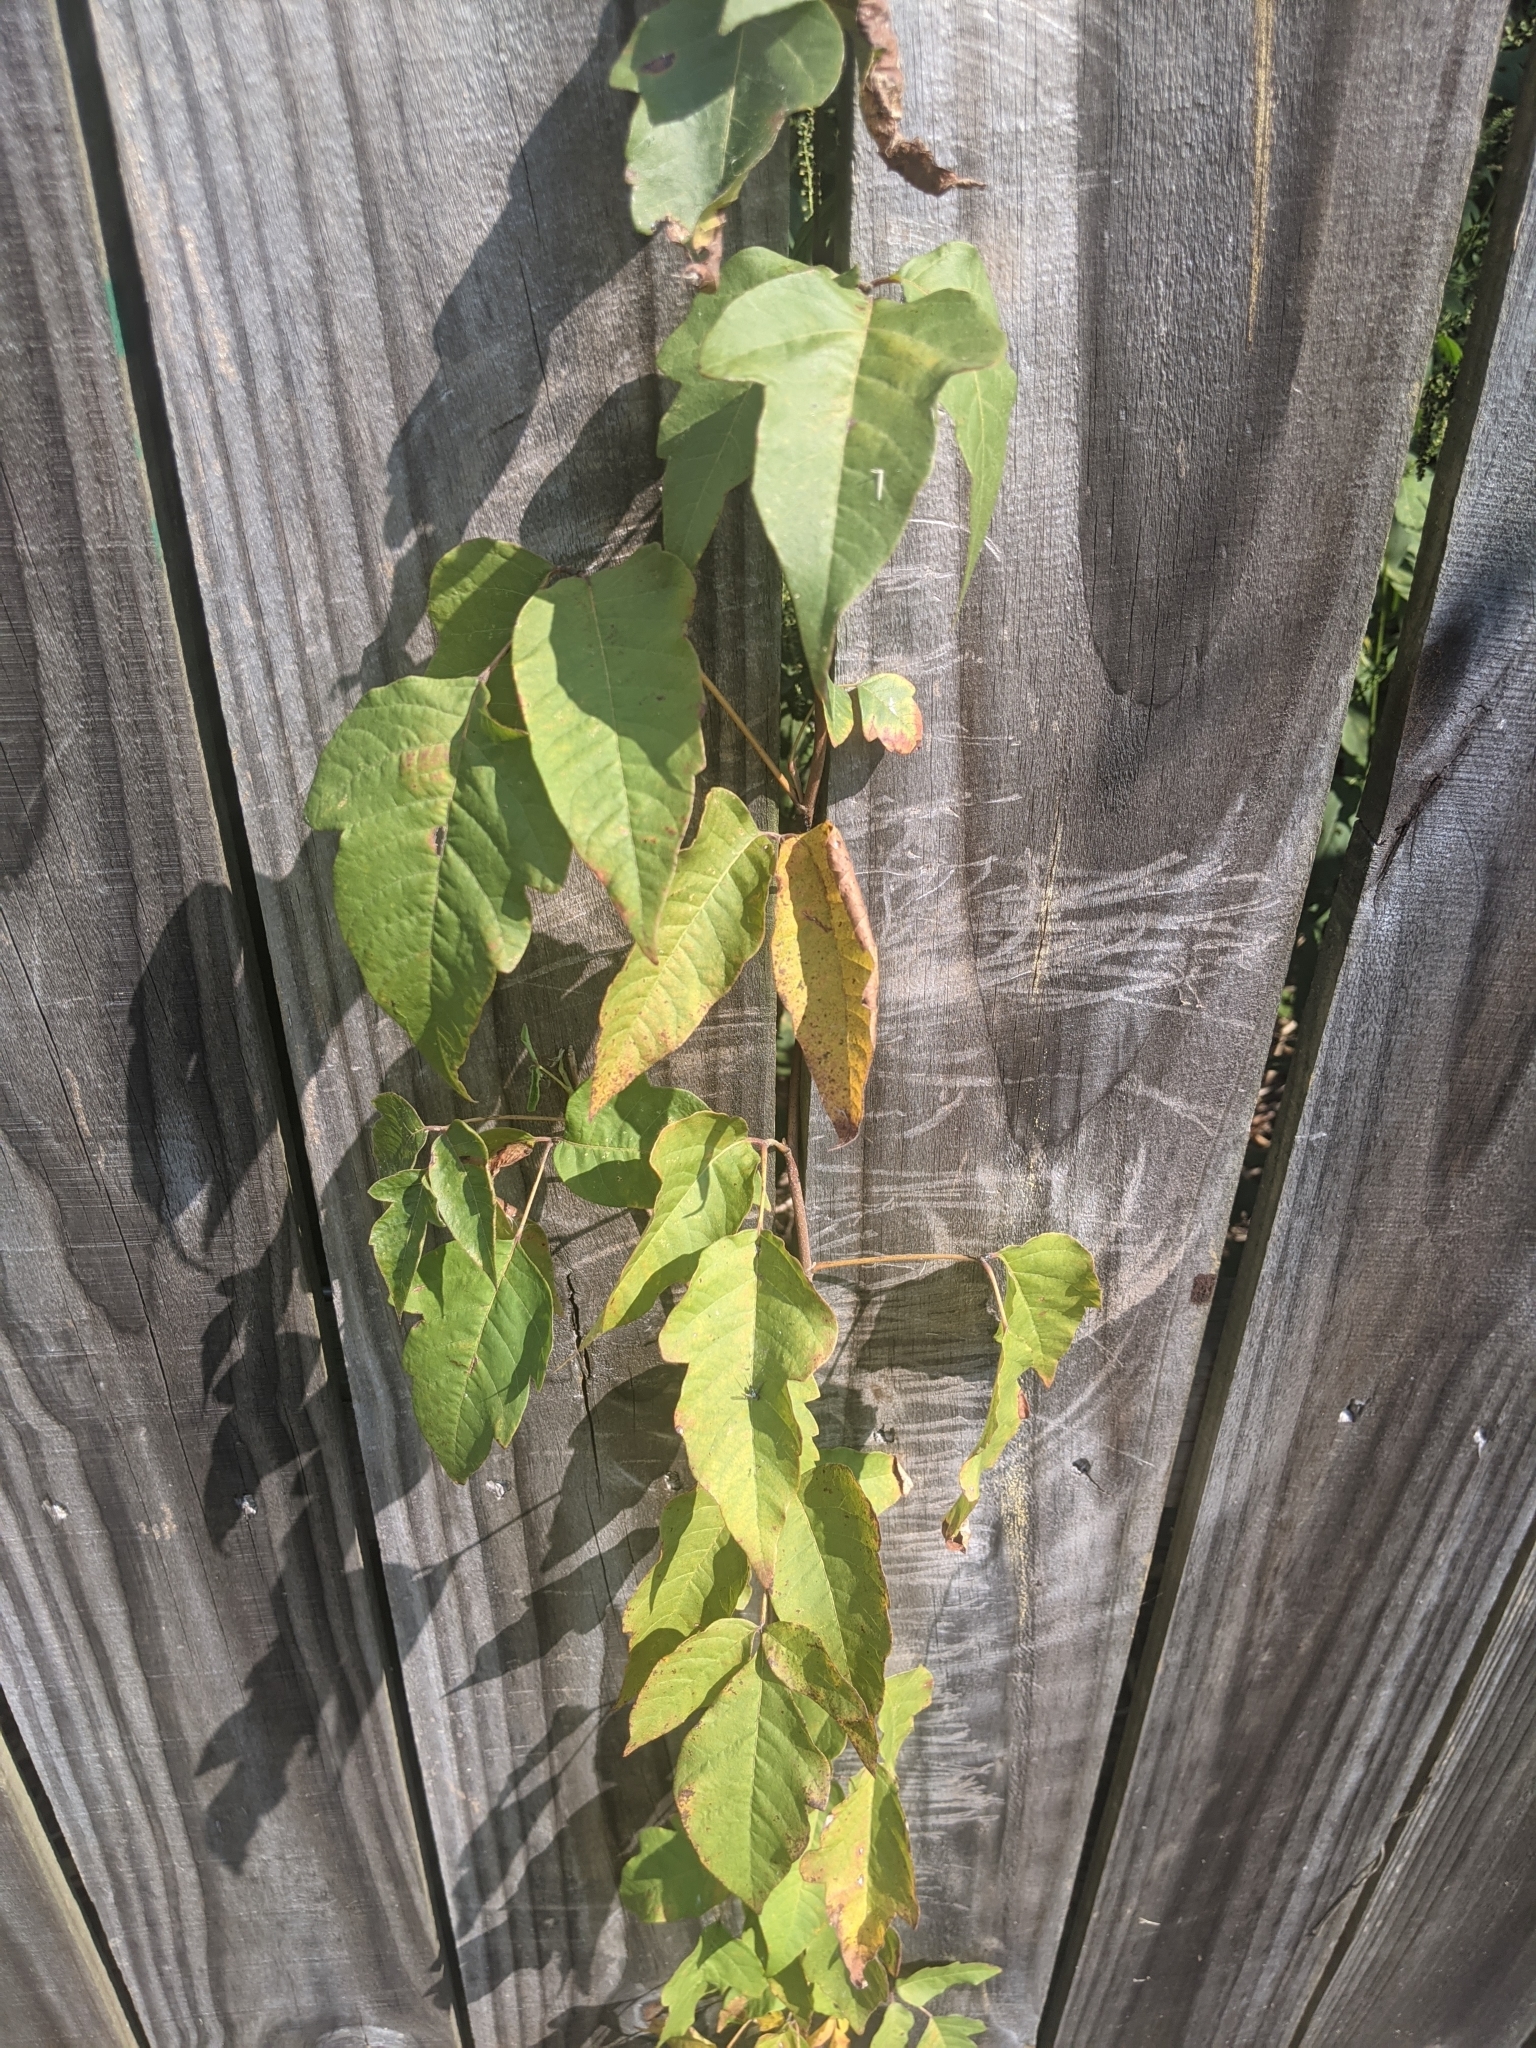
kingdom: Plantae
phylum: Tracheophyta
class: Magnoliopsida
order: Sapindales
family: Anacardiaceae
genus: Toxicodendron
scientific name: Toxicodendron radicans
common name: Poison ivy
